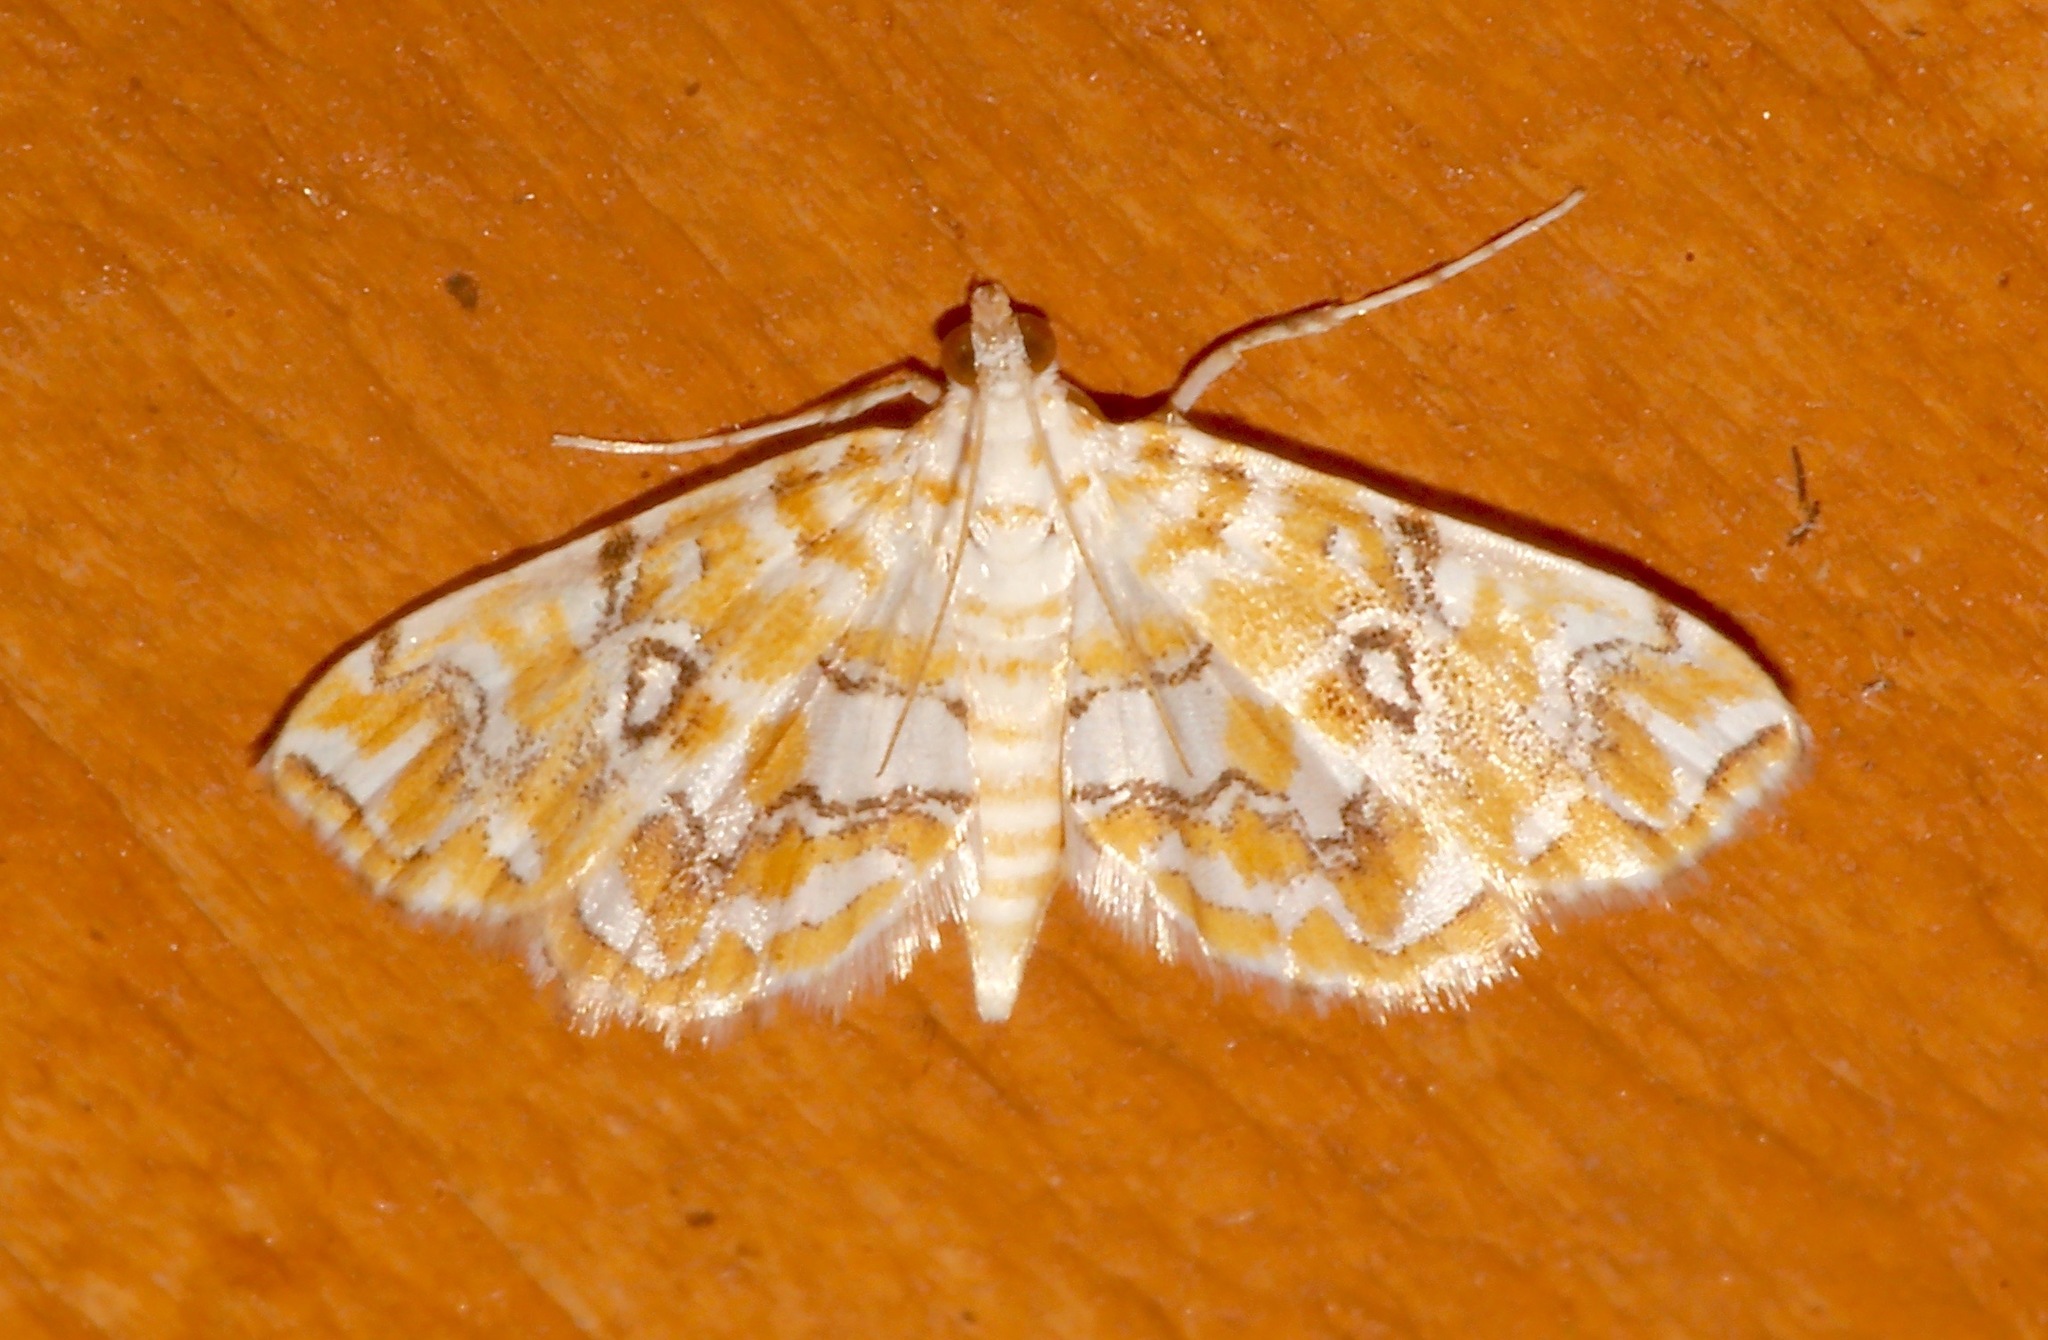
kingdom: Animalia
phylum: Arthropoda
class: Insecta
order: Lepidoptera
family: Crambidae
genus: Elophila
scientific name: Elophila icciusalis
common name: Pondside pyralid moth
